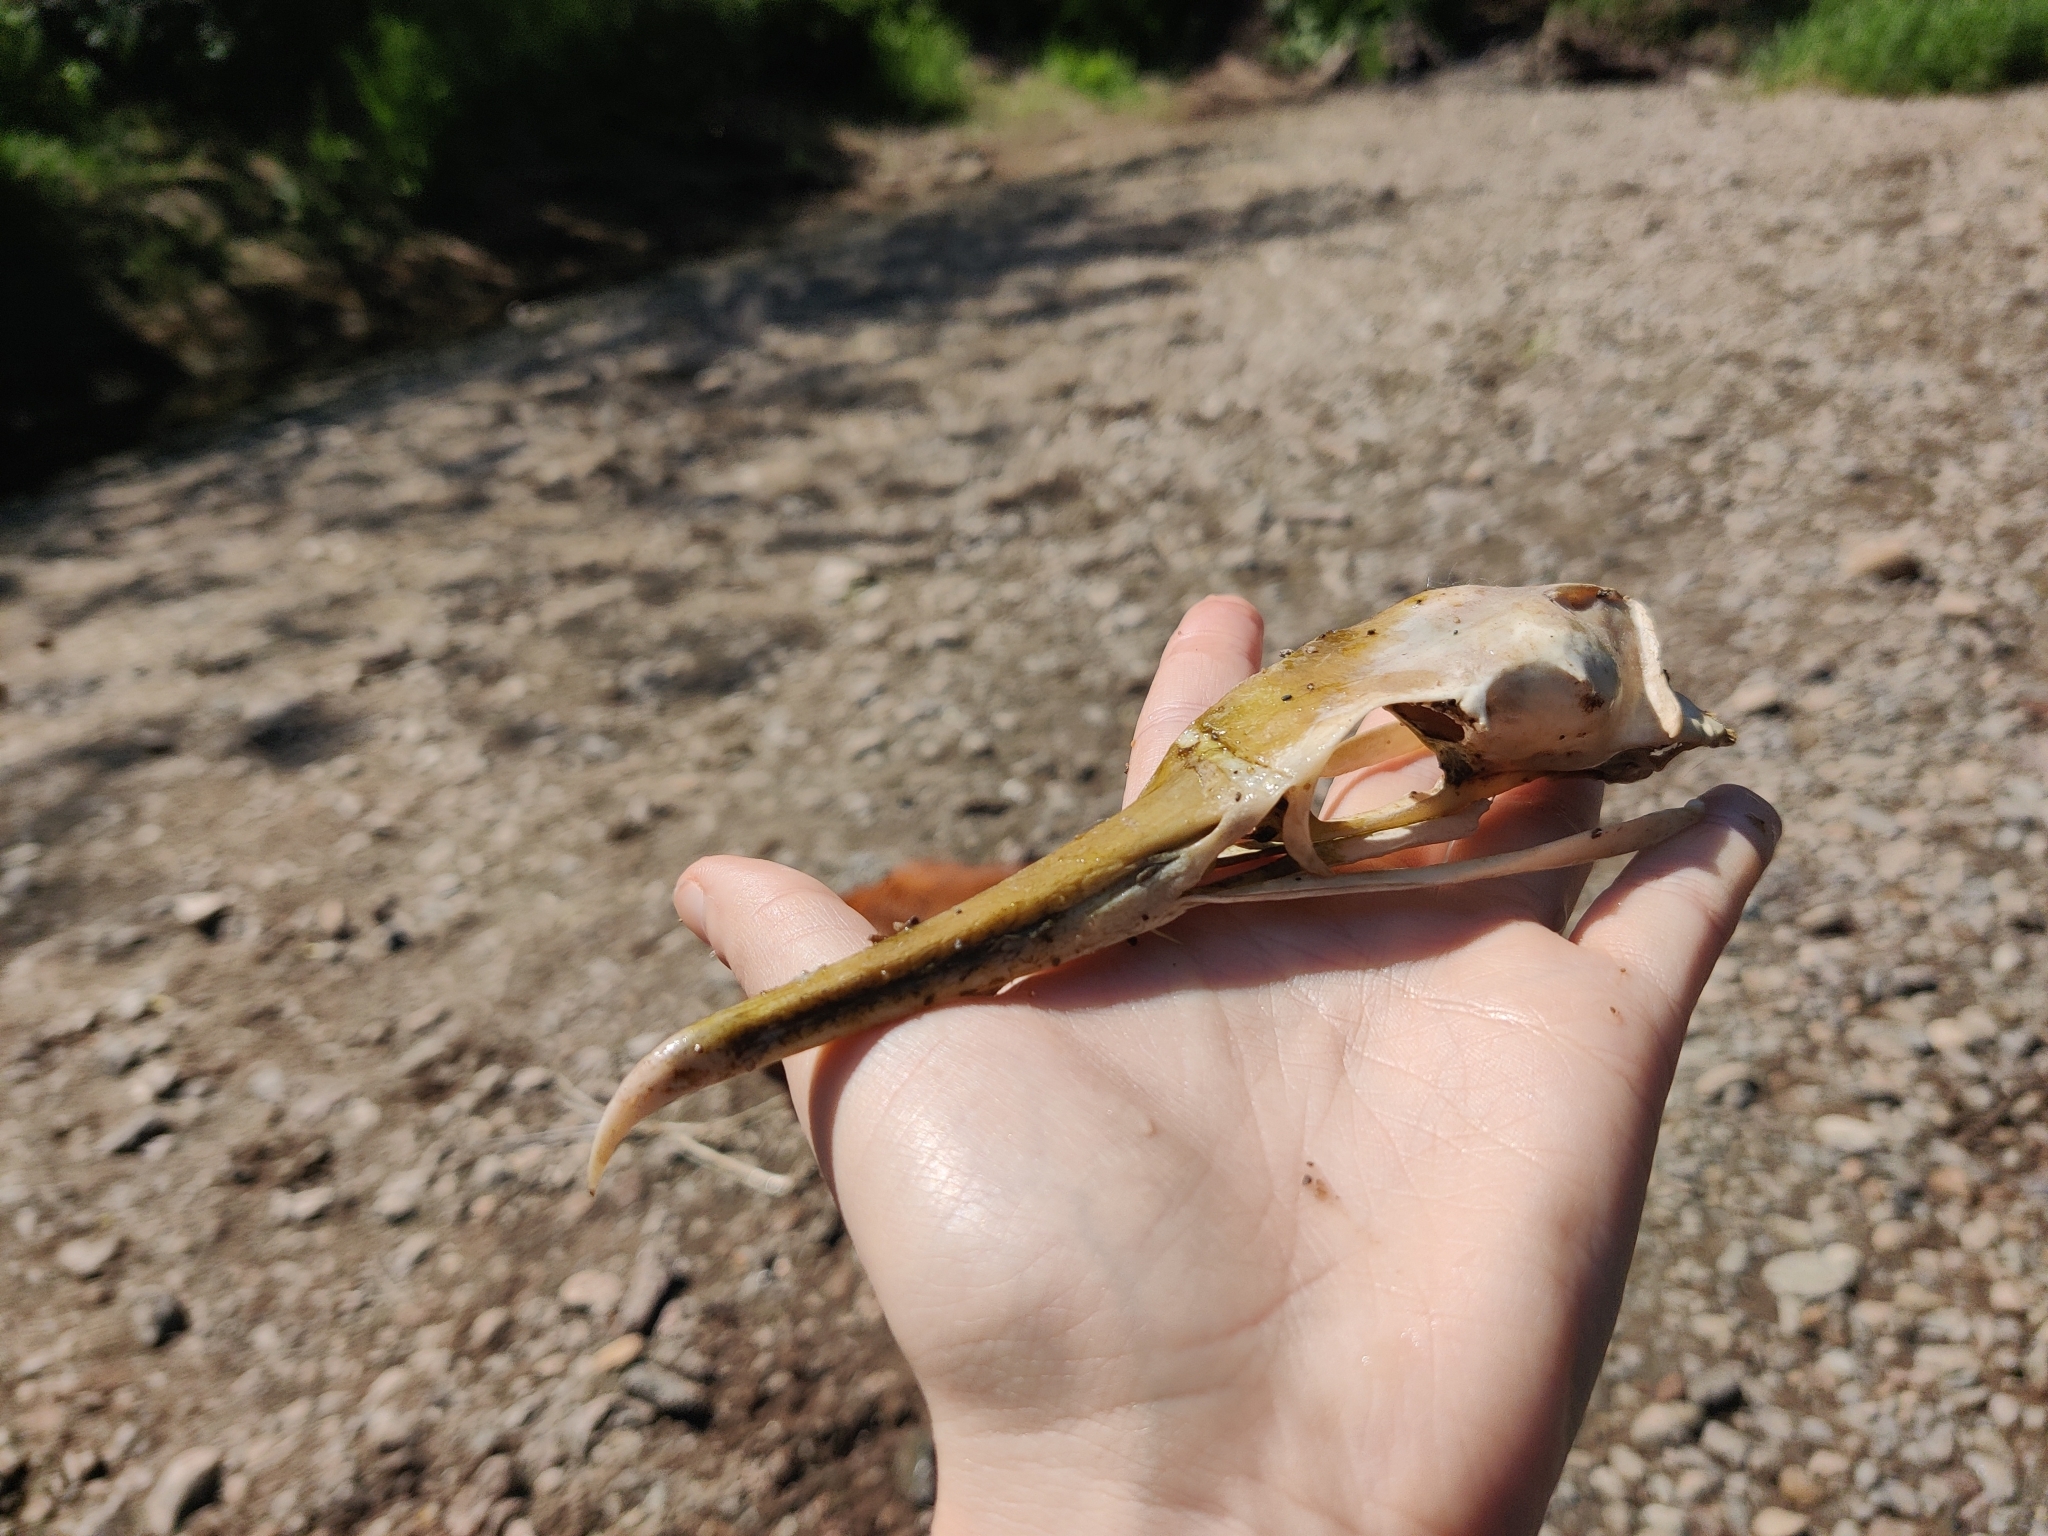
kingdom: Animalia
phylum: Chordata
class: Aves
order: Suliformes
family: Phalacrocoracidae
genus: Phalacrocorax
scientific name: Phalacrocorax carbo
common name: Great cormorant
